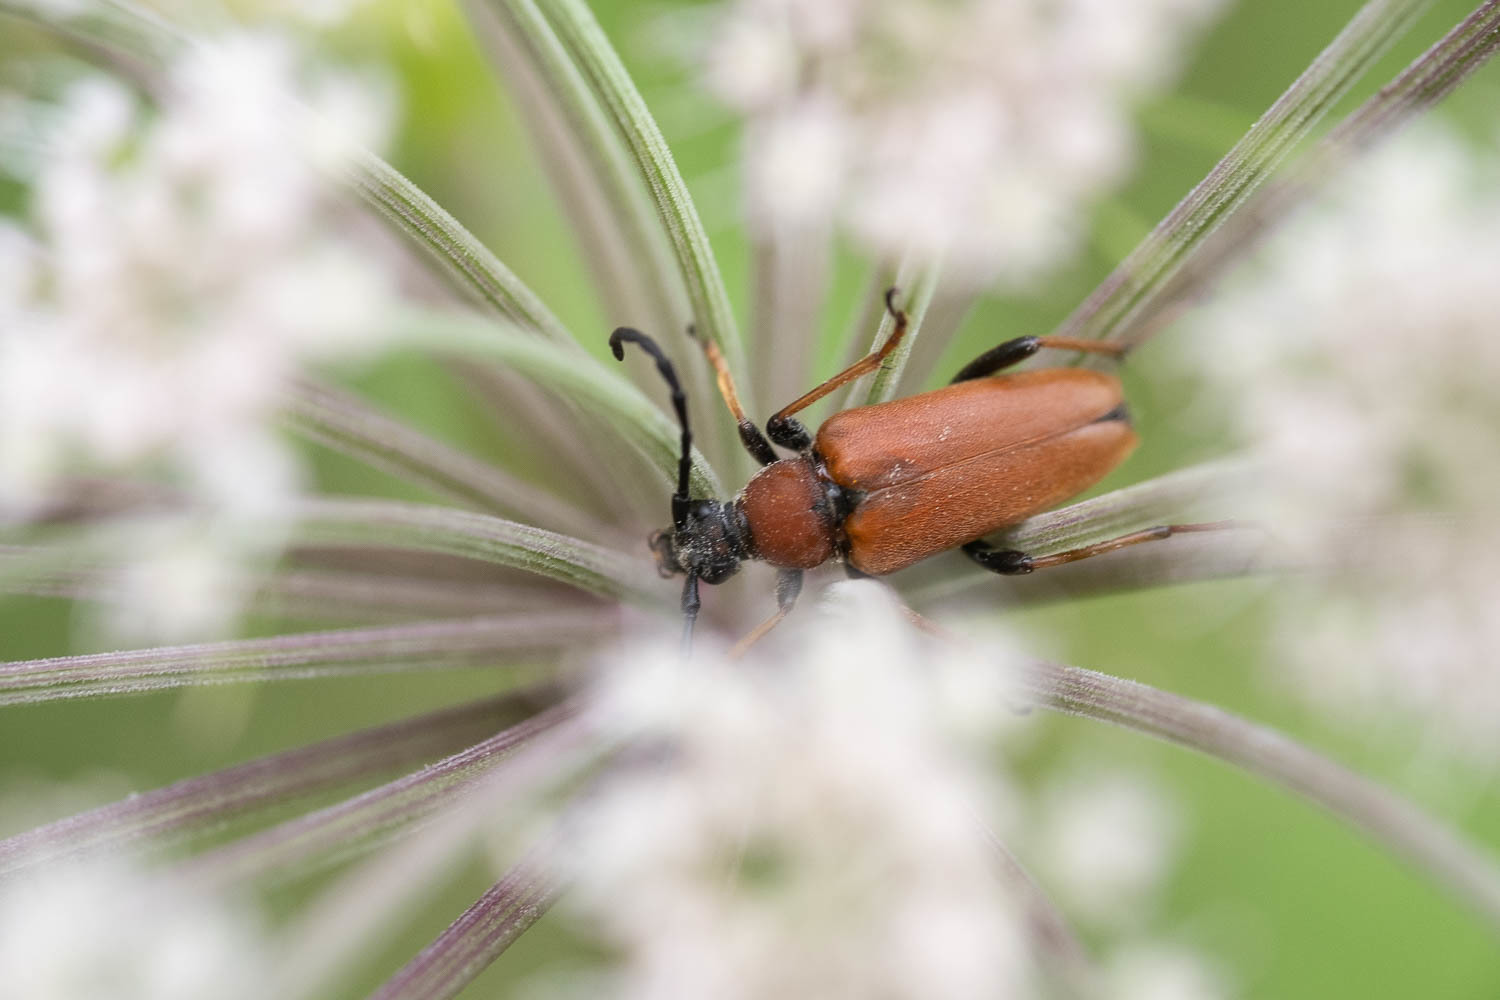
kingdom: Animalia
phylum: Arthropoda
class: Insecta
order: Coleoptera
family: Cerambycidae
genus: Stictoleptura
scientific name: Stictoleptura rubra
